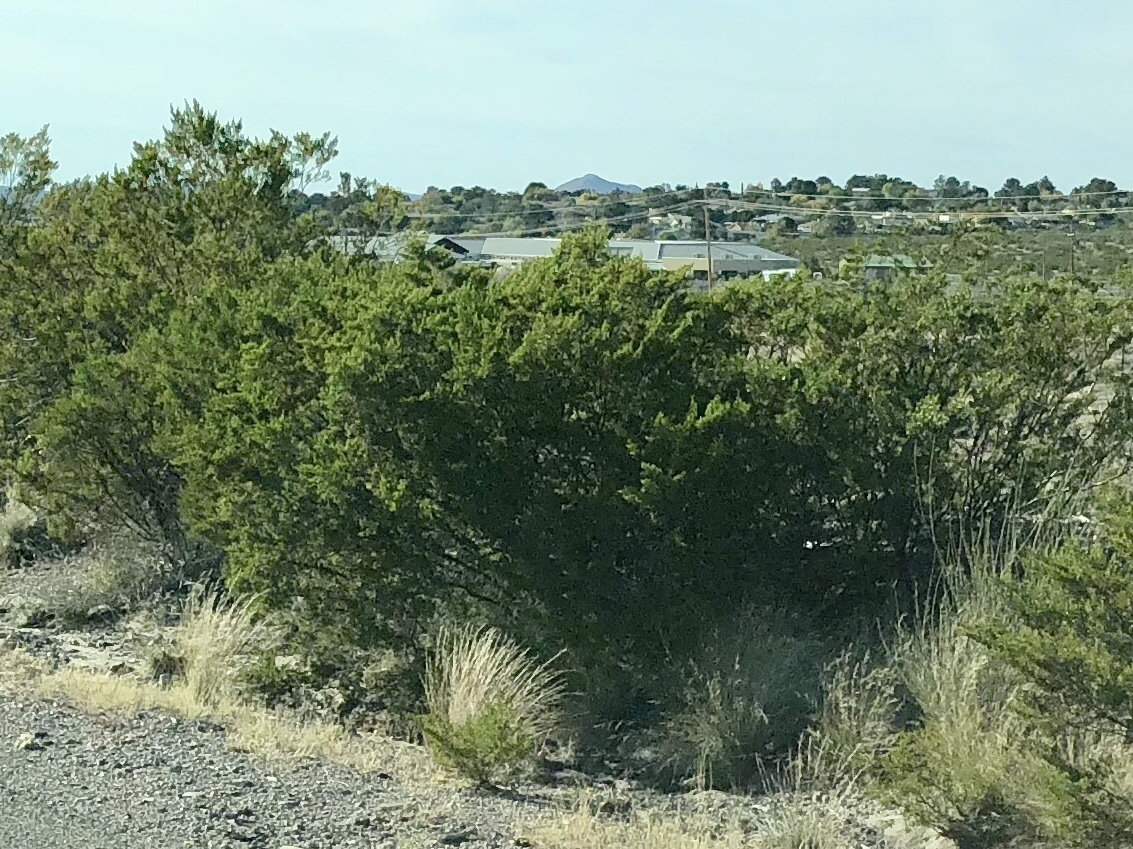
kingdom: Plantae
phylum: Tracheophyta
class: Magnoliopsida
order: Zygophyllales
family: Zygophyllaceae
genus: Larrea
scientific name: Larrea tridentata
